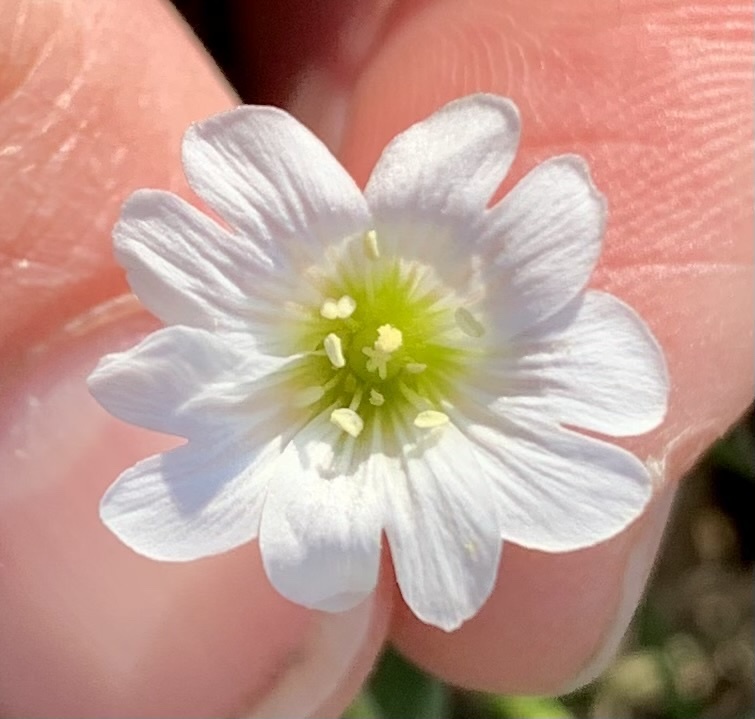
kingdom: Plantae
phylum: Tracheophyta
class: Magnoliopsida
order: Caryophyllales
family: Caryophyllaceae
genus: Cerastium
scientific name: Cerastium arvense
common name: Field mouse-ear
